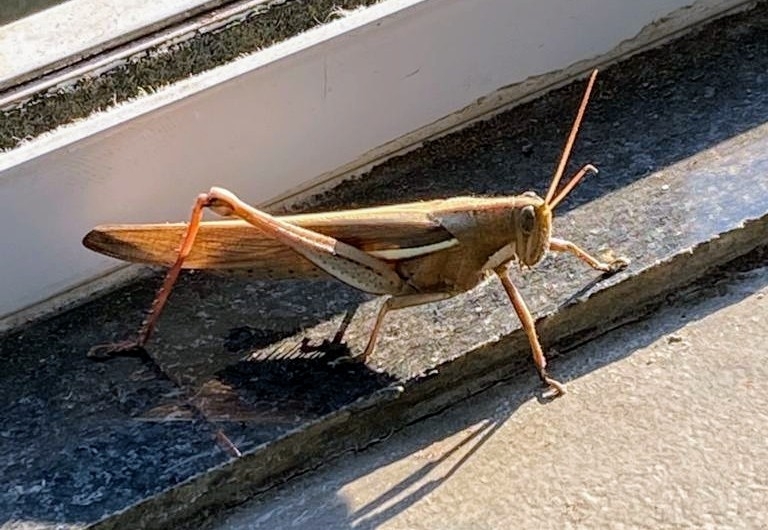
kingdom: Animalia
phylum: Arthropoda
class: Insecta
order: Orthoptera
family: Acrididae
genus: Schistocerca
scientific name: Schistocerca flavofasciata
